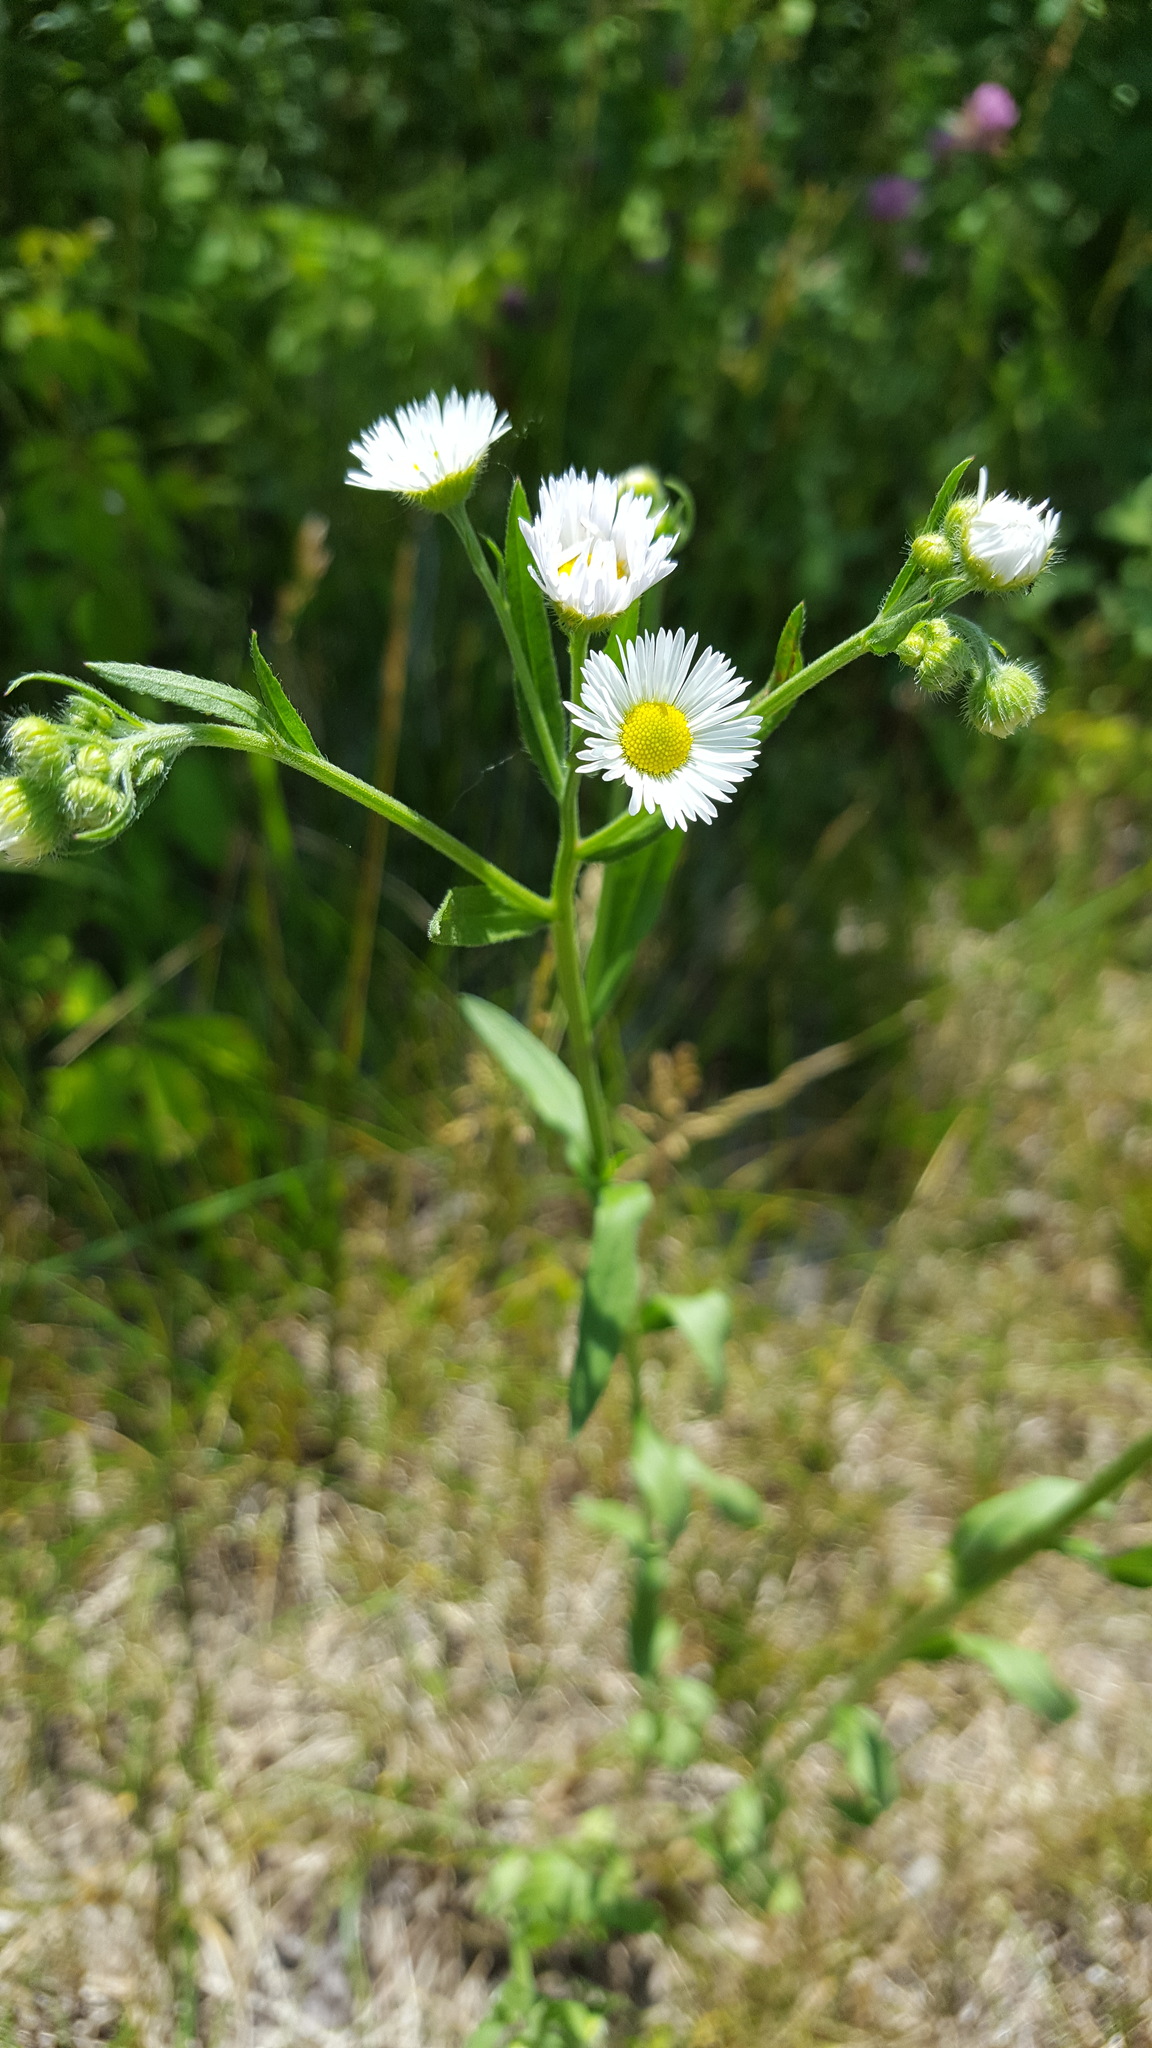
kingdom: Plantae
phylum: Tracheophyta
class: Magnoliopsida
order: Asterales
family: Asteraceae
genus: Erigeron
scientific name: Erigeron strigosus
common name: Common eastern fleabane
